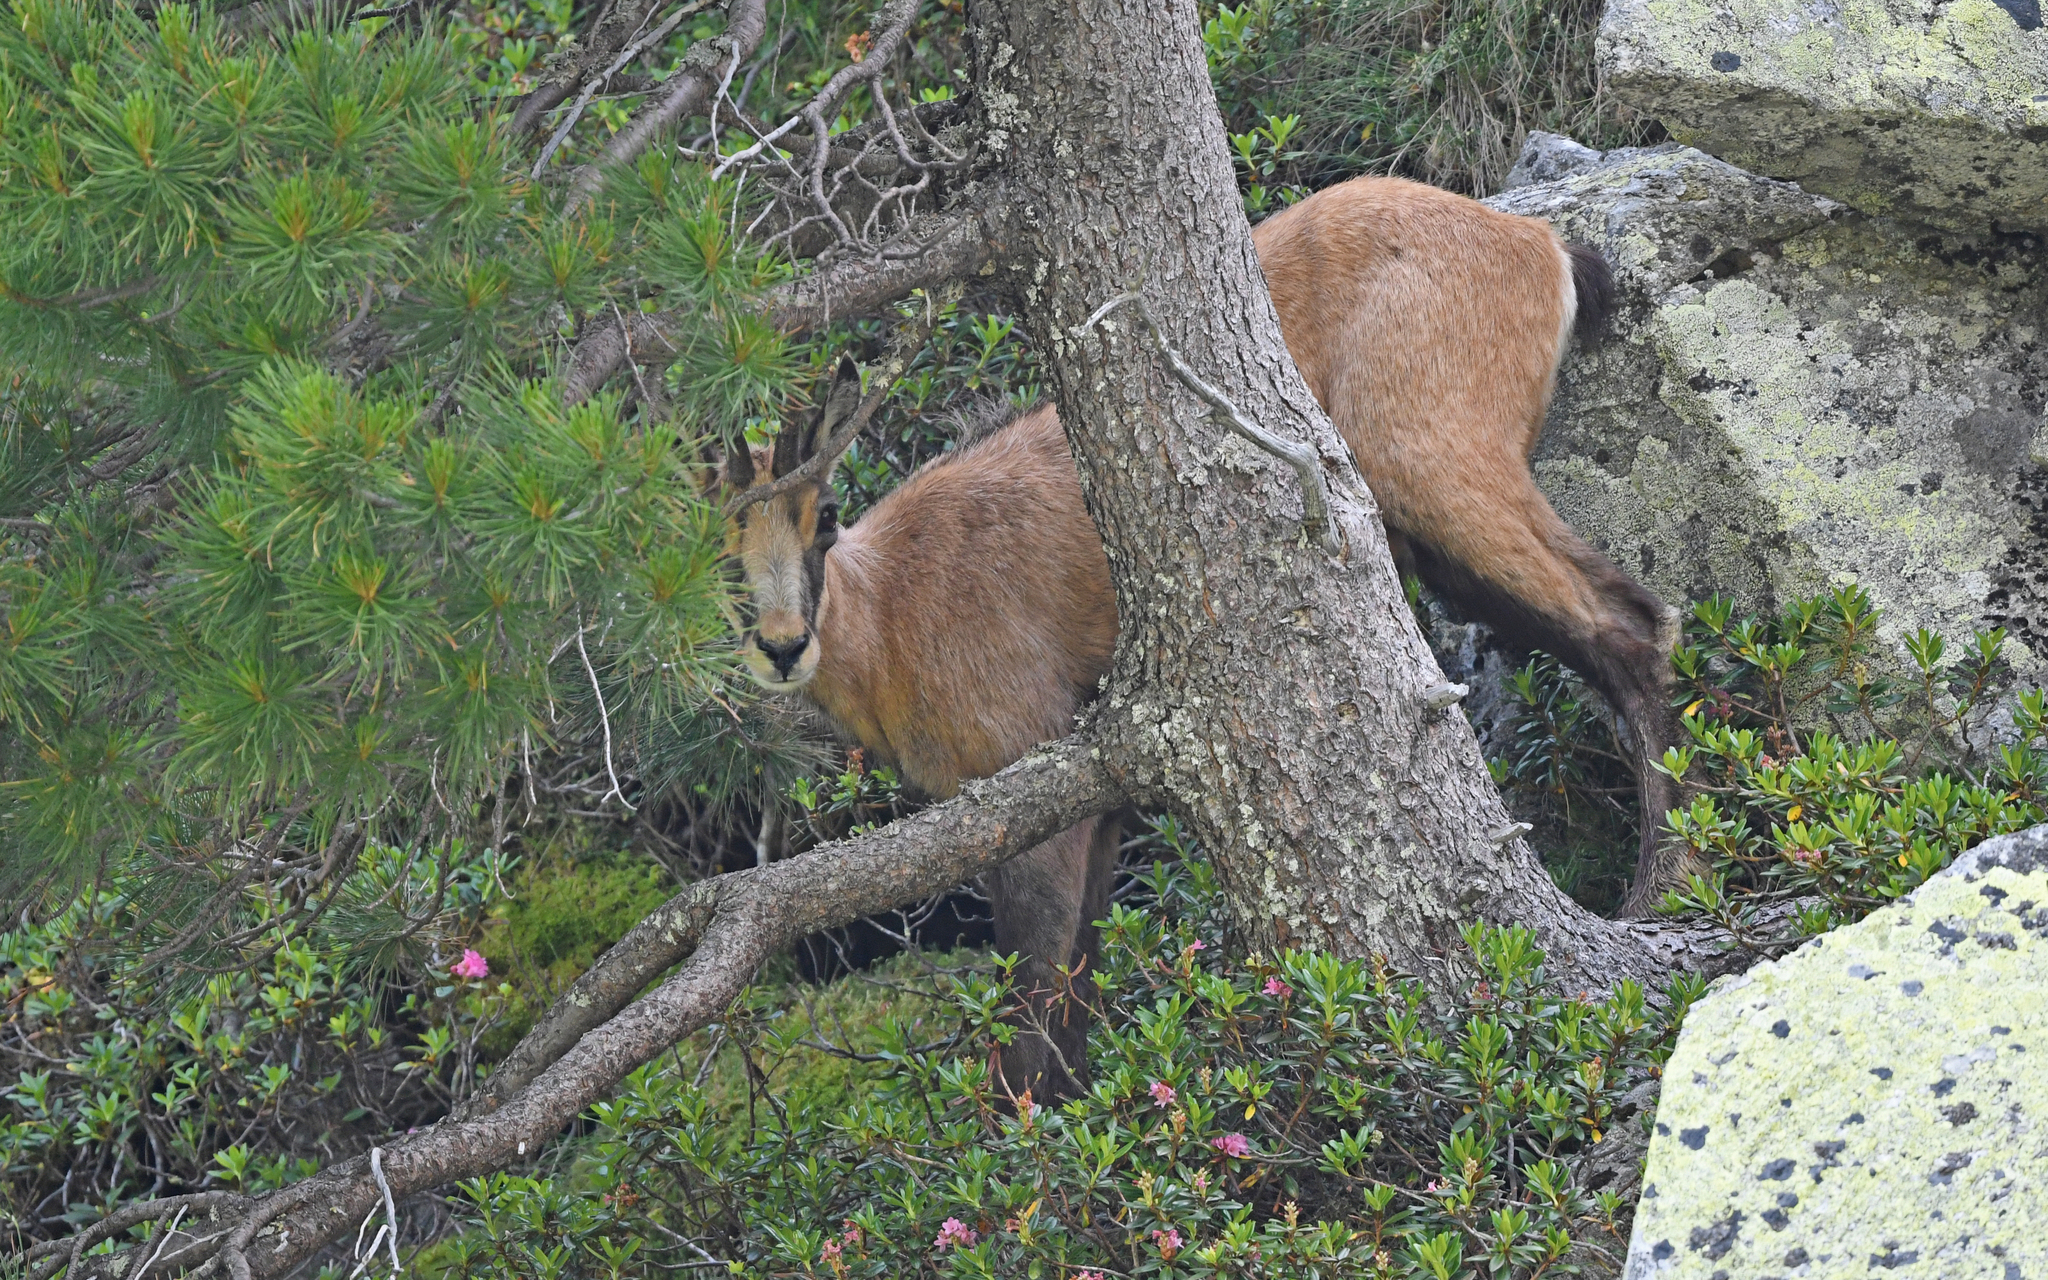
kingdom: Animalia
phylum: Chordata
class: Mammalia
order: Artiodactyla
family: Bovidae
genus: Rupicapra
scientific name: Rupicapra rupicapra
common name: Chamois
